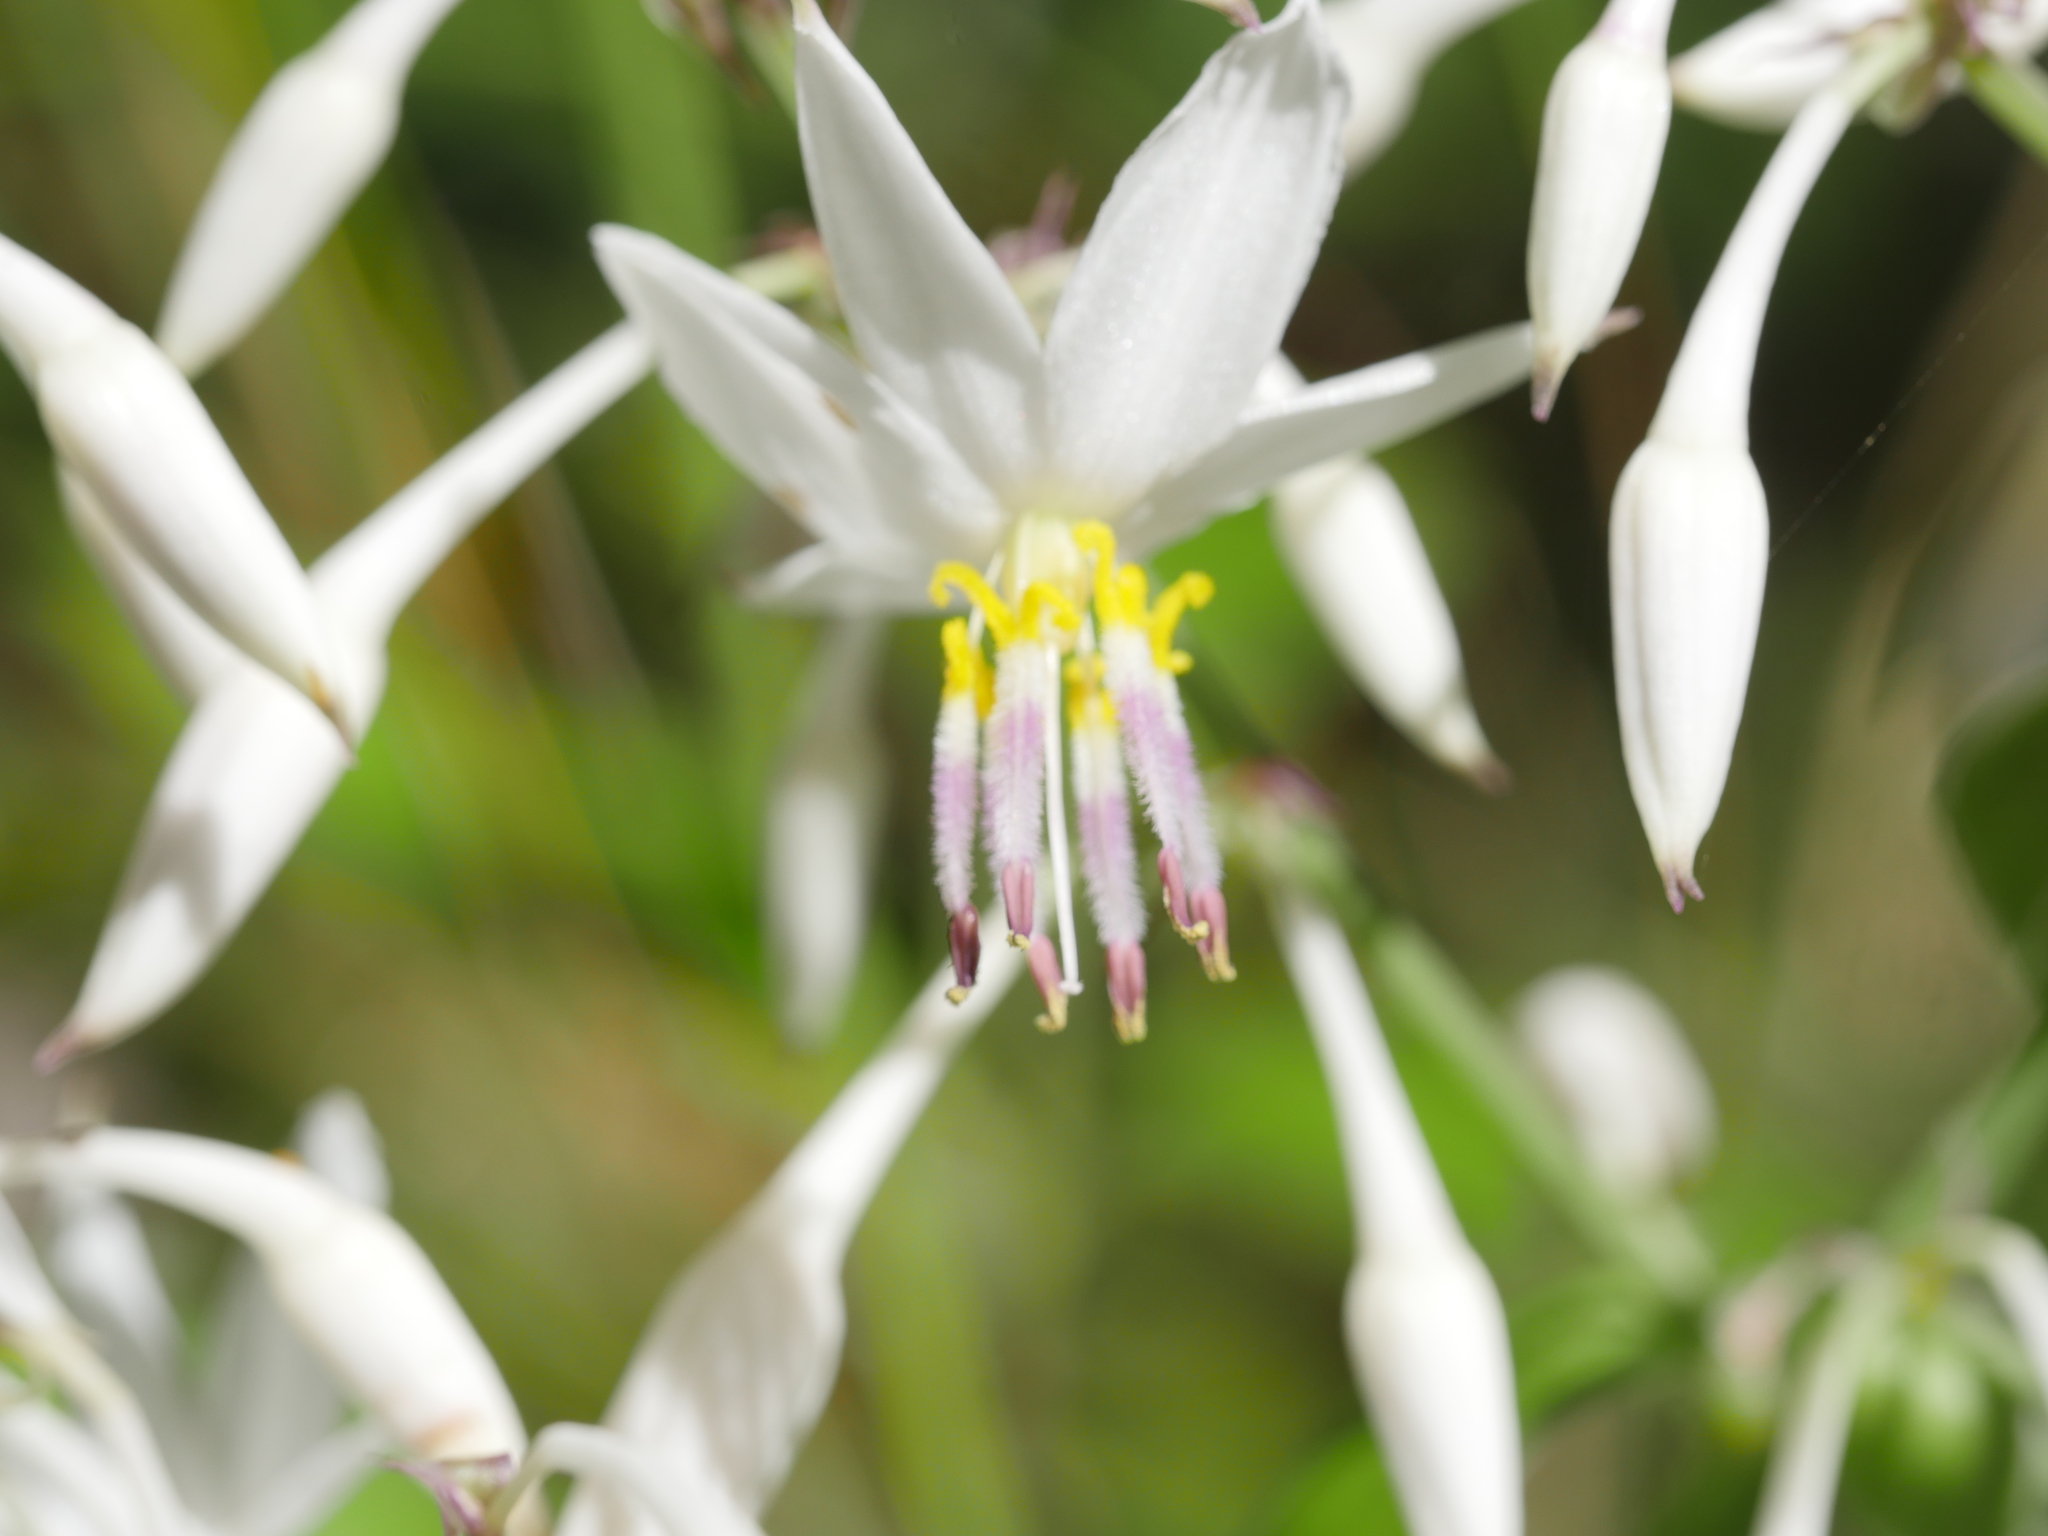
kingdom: Plantae
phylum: Tracheophyta
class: Liliopsida
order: Asparagales
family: Asparagaceae
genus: Arthropodium
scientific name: Arthropodium cirratum
